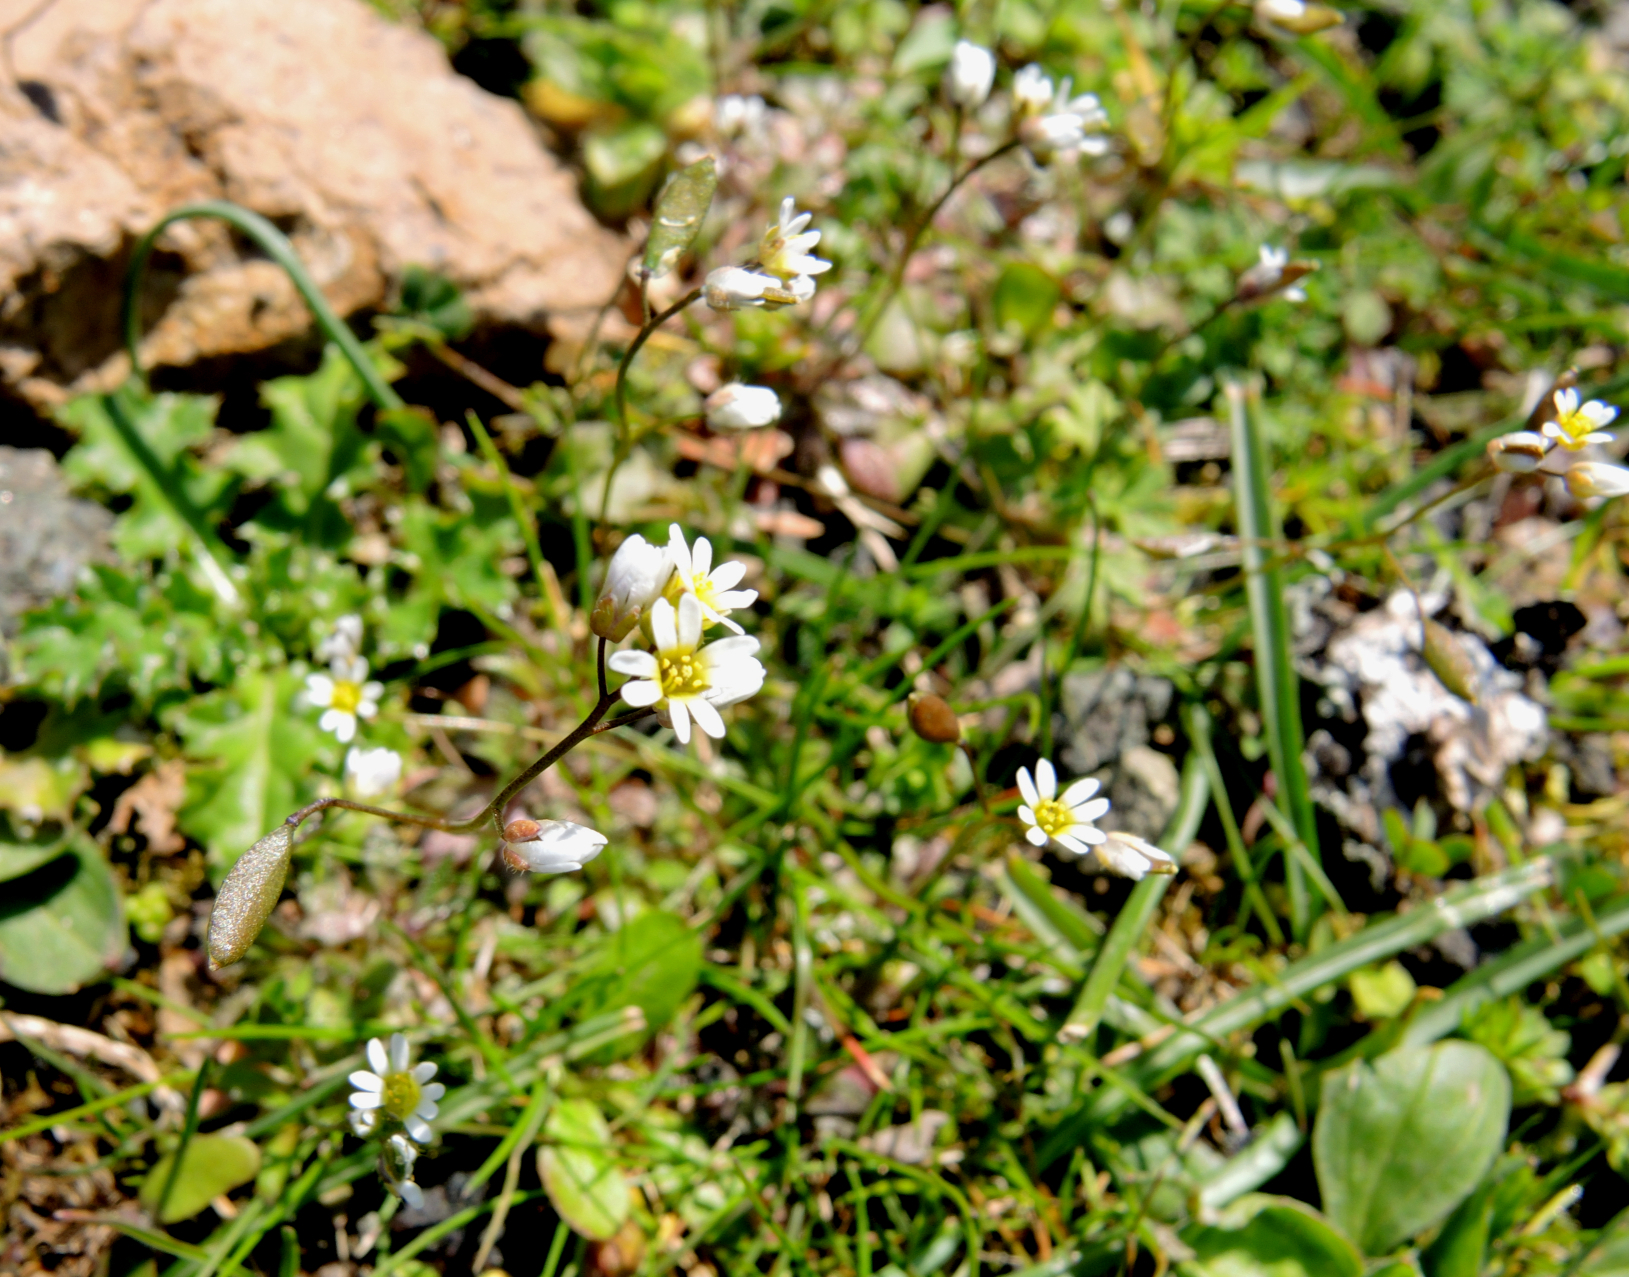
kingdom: Plantae
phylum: Tracheophyta
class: Magnoliopsida
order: Brassicales
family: Brassicaceae
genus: Draba
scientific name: Draba verna
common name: Spring draba
